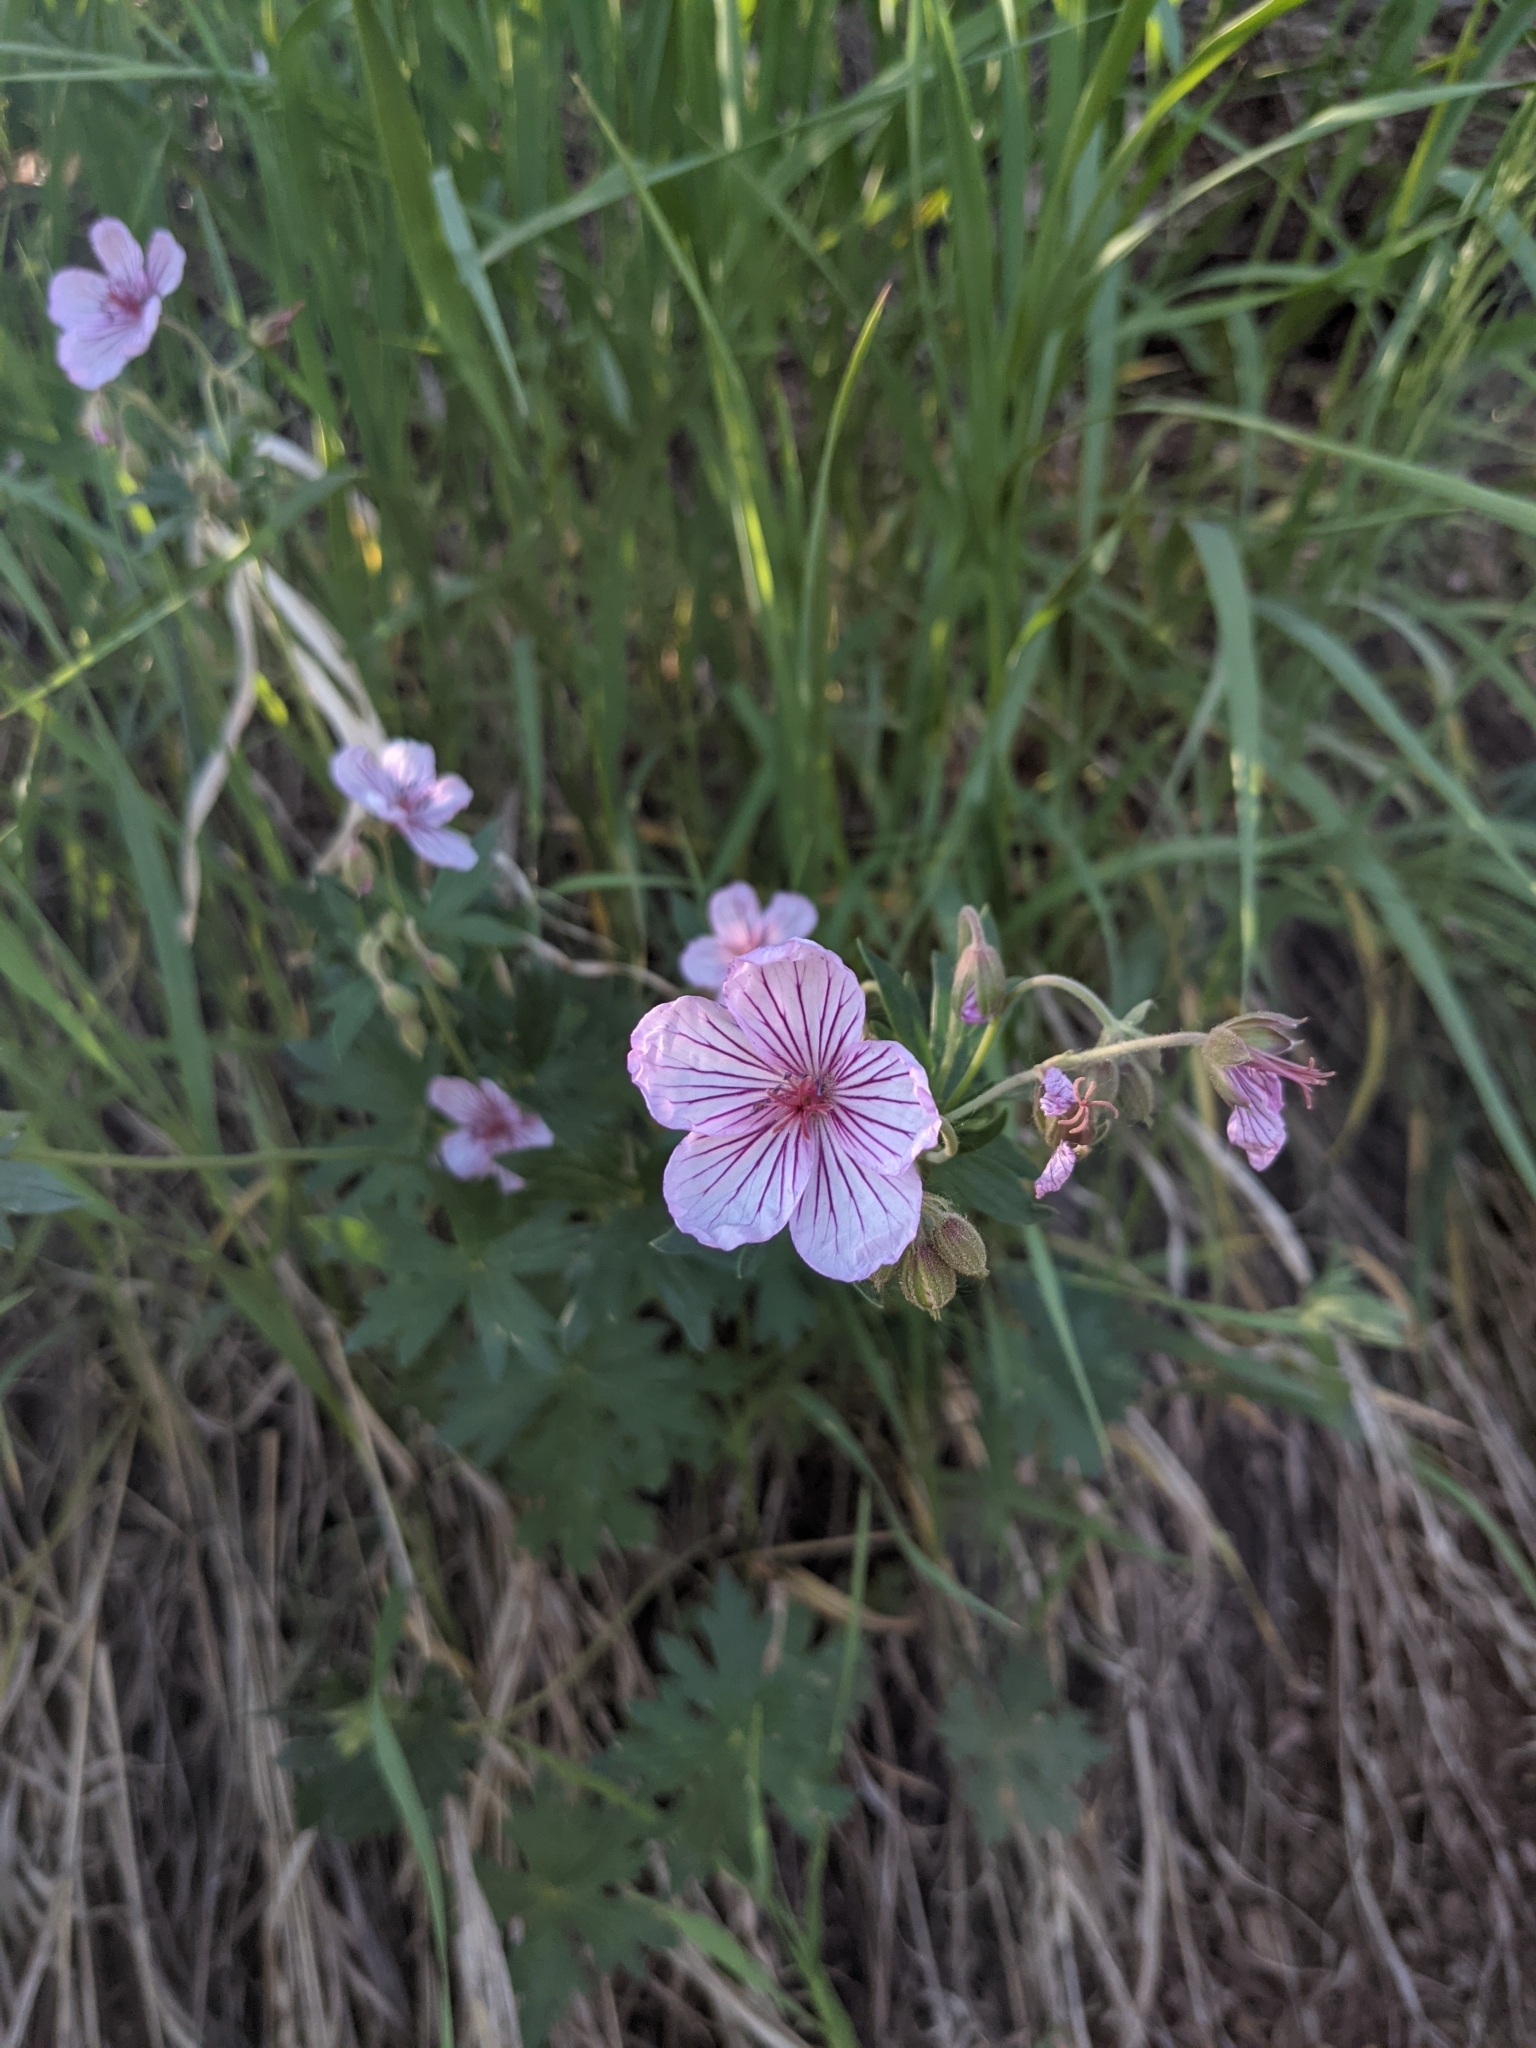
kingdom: Plantae
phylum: Tracheophyta
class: Magnoliopsida
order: Geraniales
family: Geraniaceae
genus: Geranium
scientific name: Geranium viscosissimum
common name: Purple geranium
